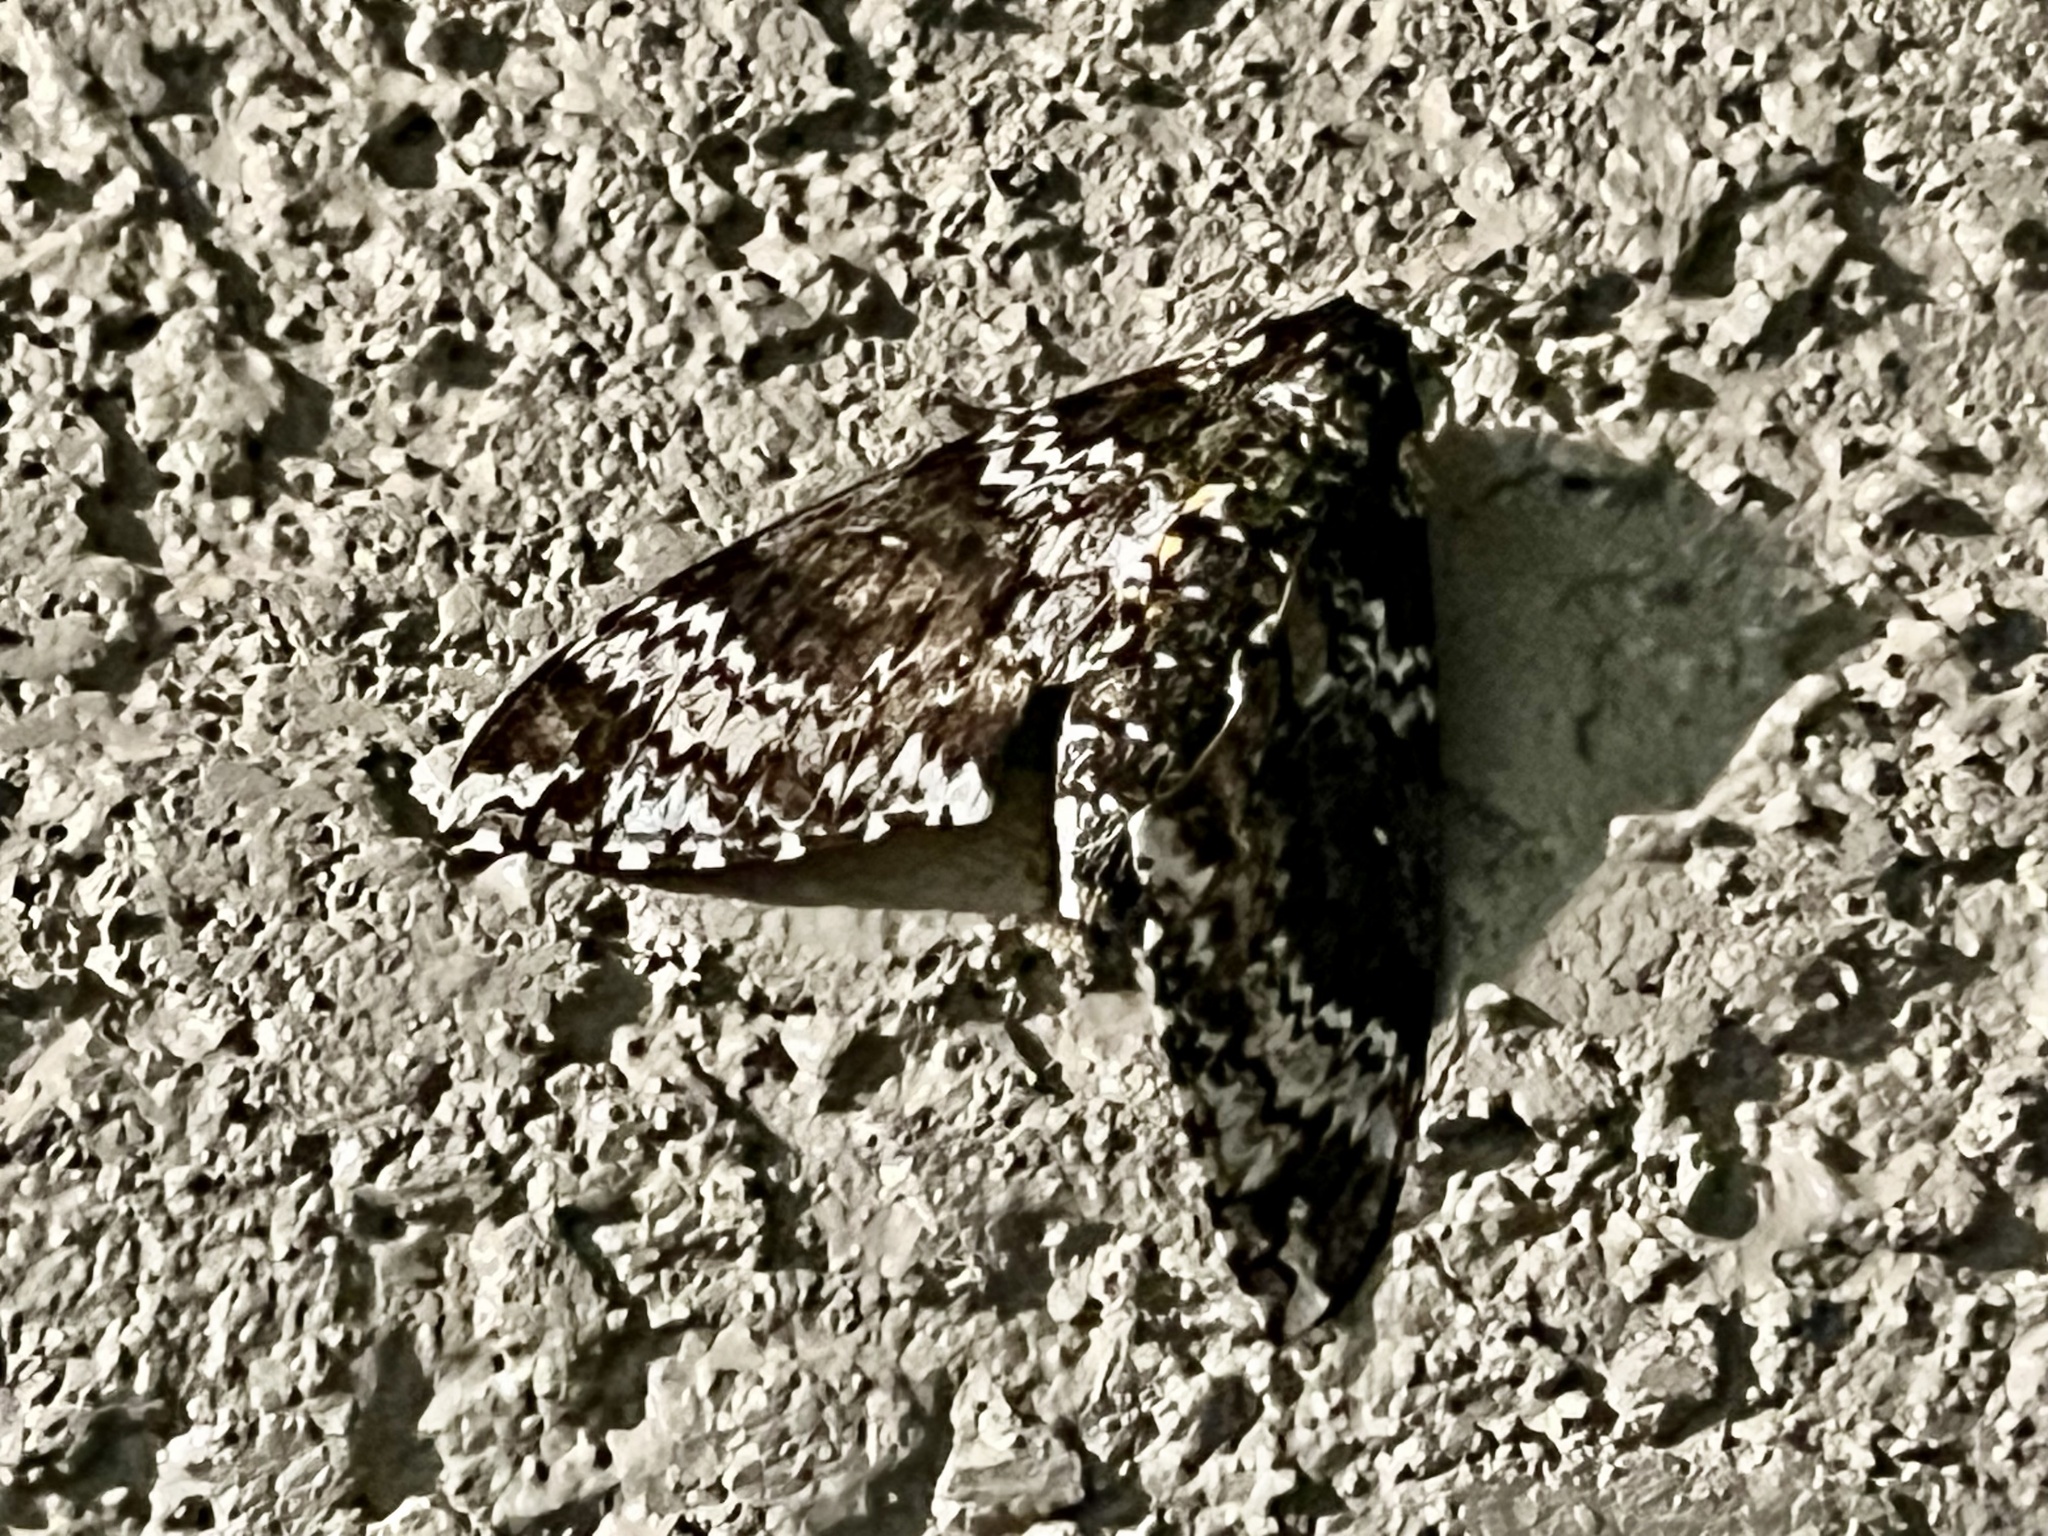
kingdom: Animalia
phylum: Arthropoda
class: Insecta
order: Lepidoptera
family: Sphingidae
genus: Manduca
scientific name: Manduca rustica
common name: Rustic sphinx
